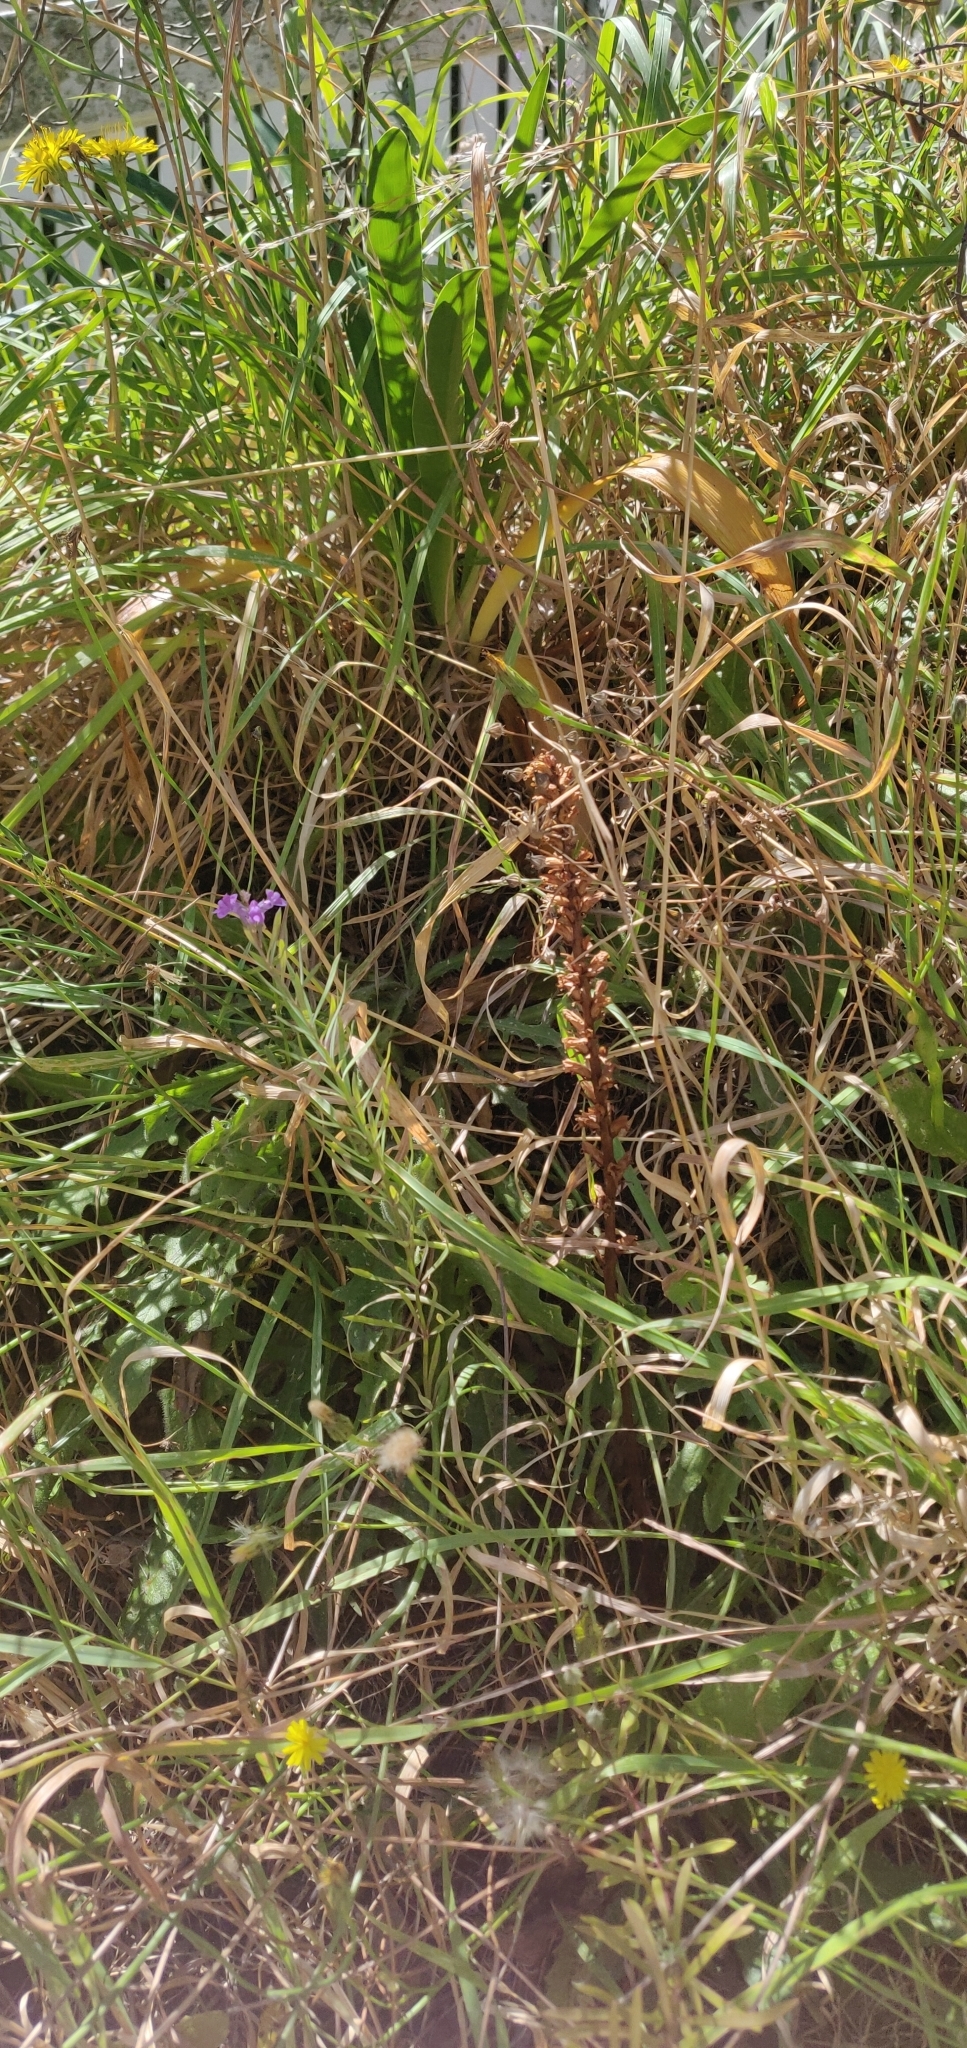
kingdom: Plantae
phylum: Tracheophyta
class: Magnoliopsida
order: Lamiales
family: Orobanchaceae
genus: Orobanche
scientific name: Orobanche minor
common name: Common broomrape
